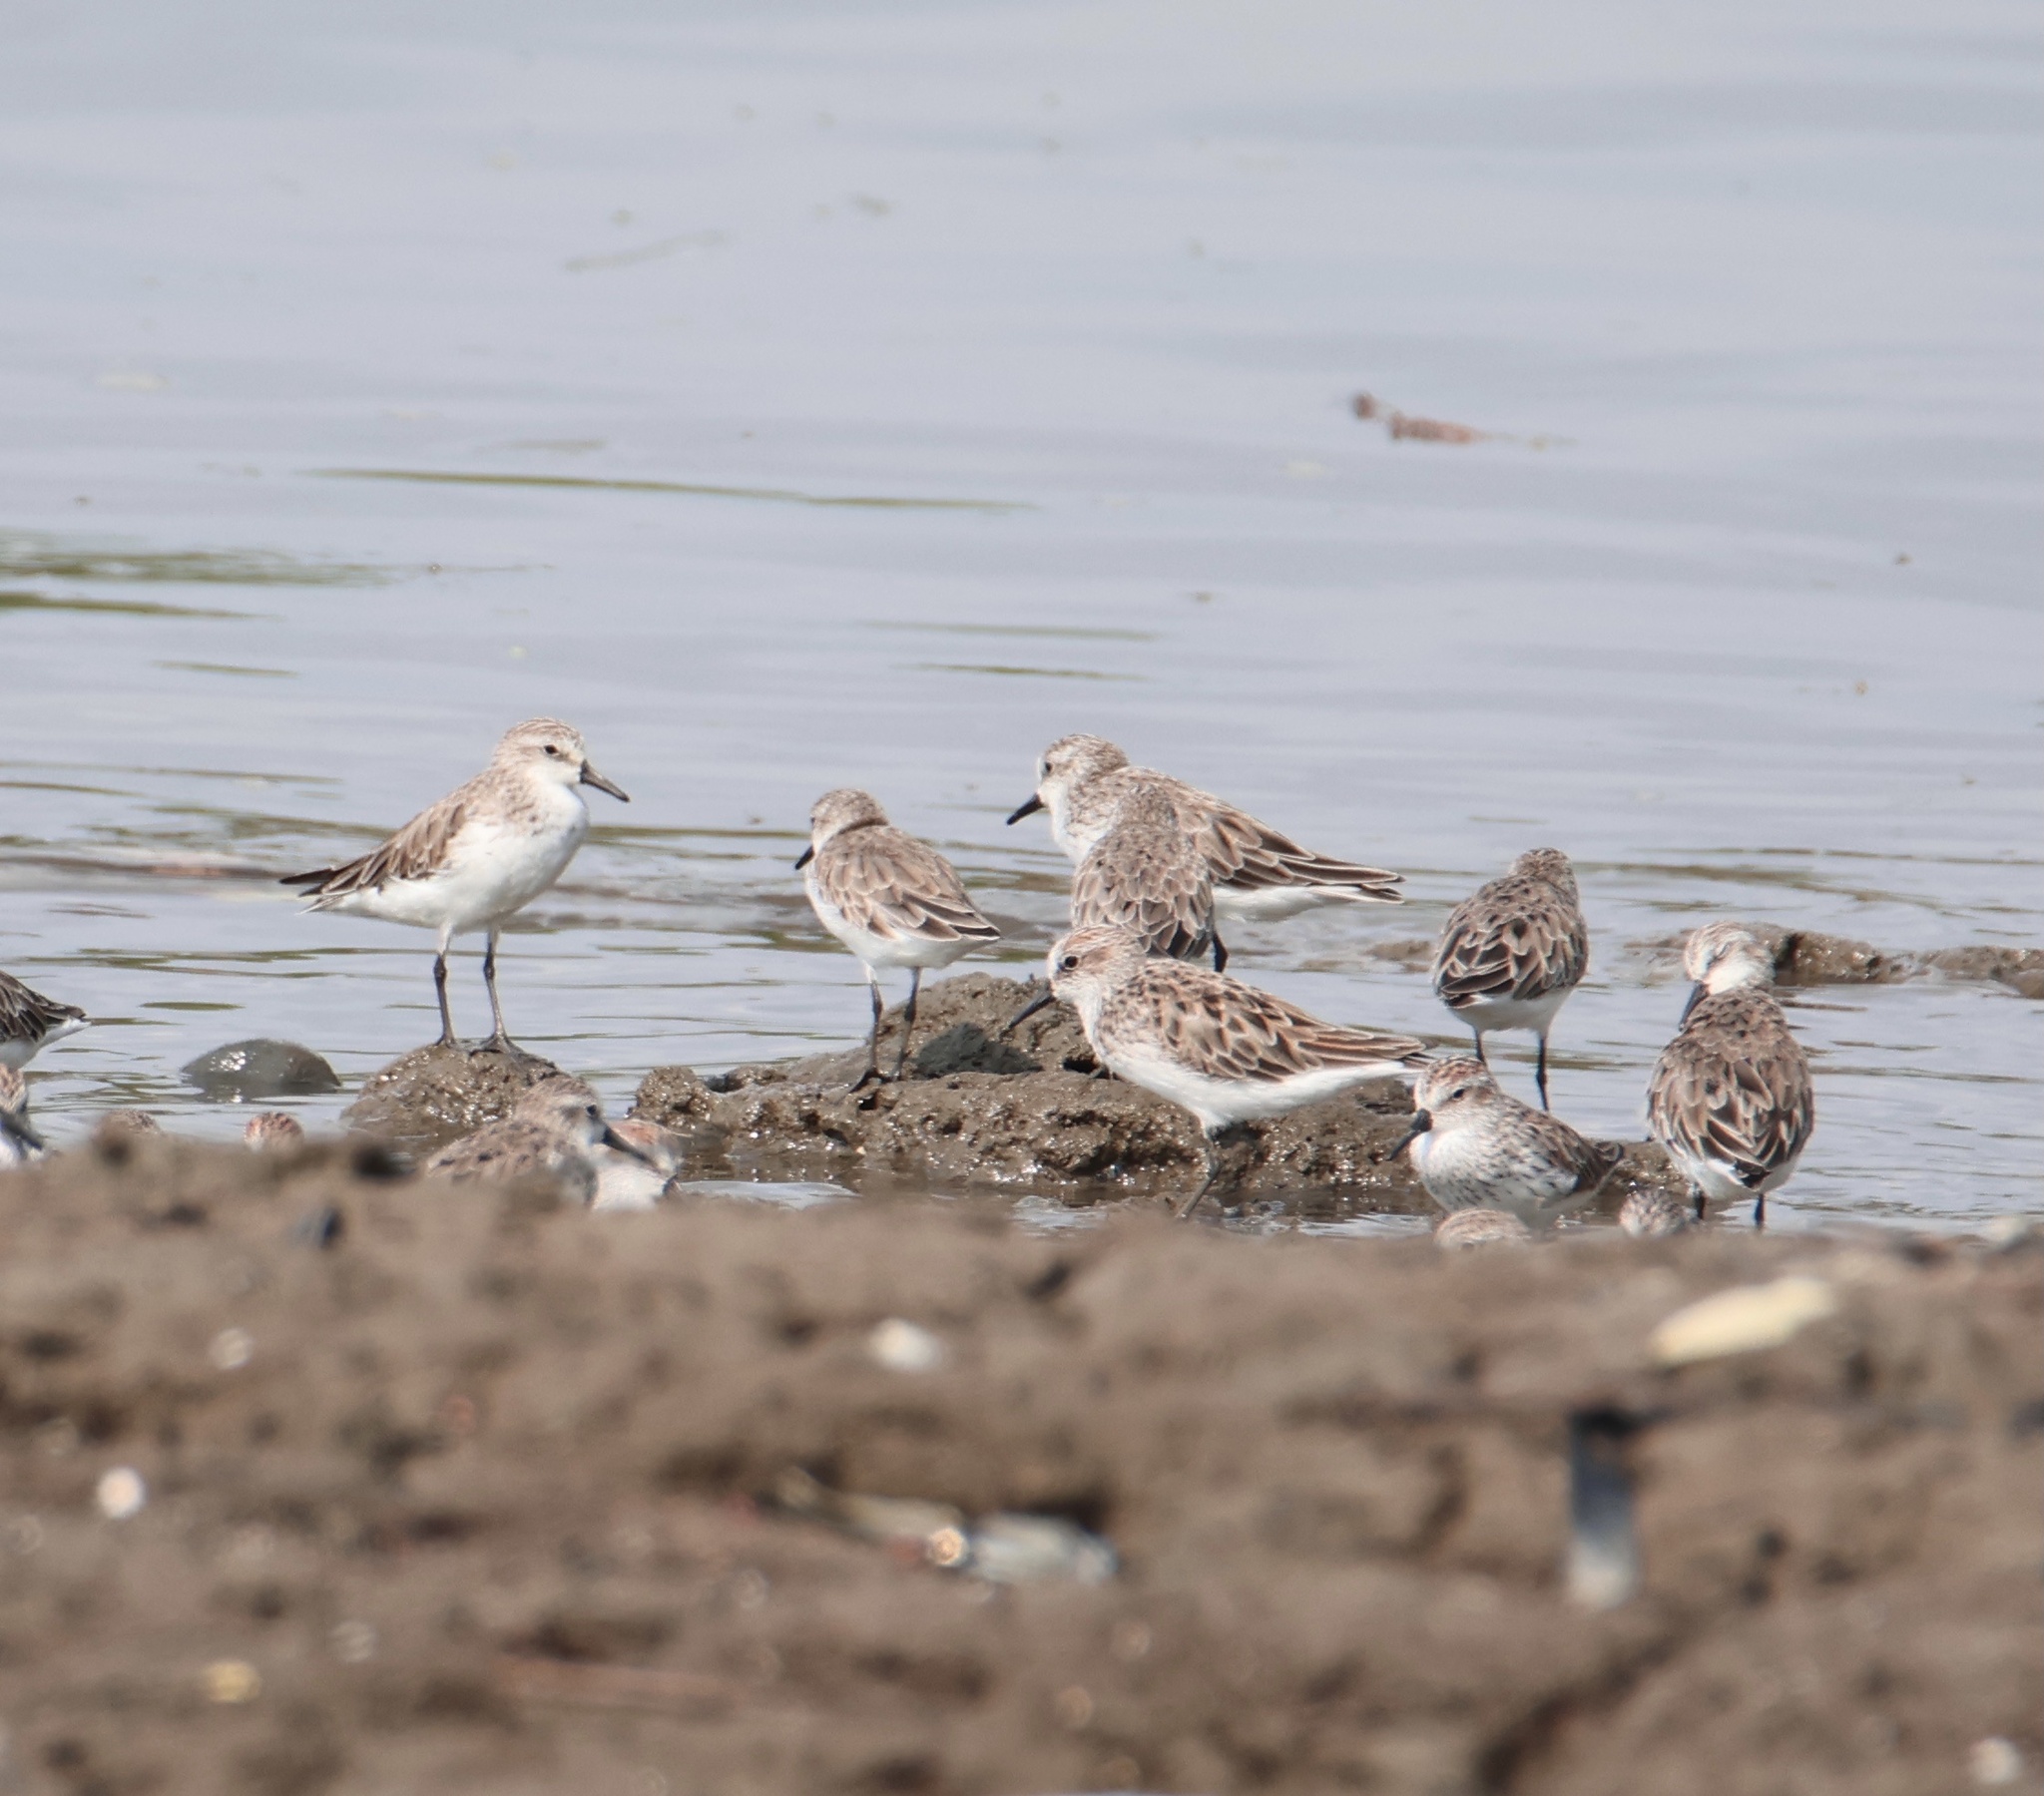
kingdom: Animalia
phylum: Chordata
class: Aves
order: Charadriiformes
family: Scolopacidae
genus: Calidris
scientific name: Calidris pusilla
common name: Semipalmated sandpiper
